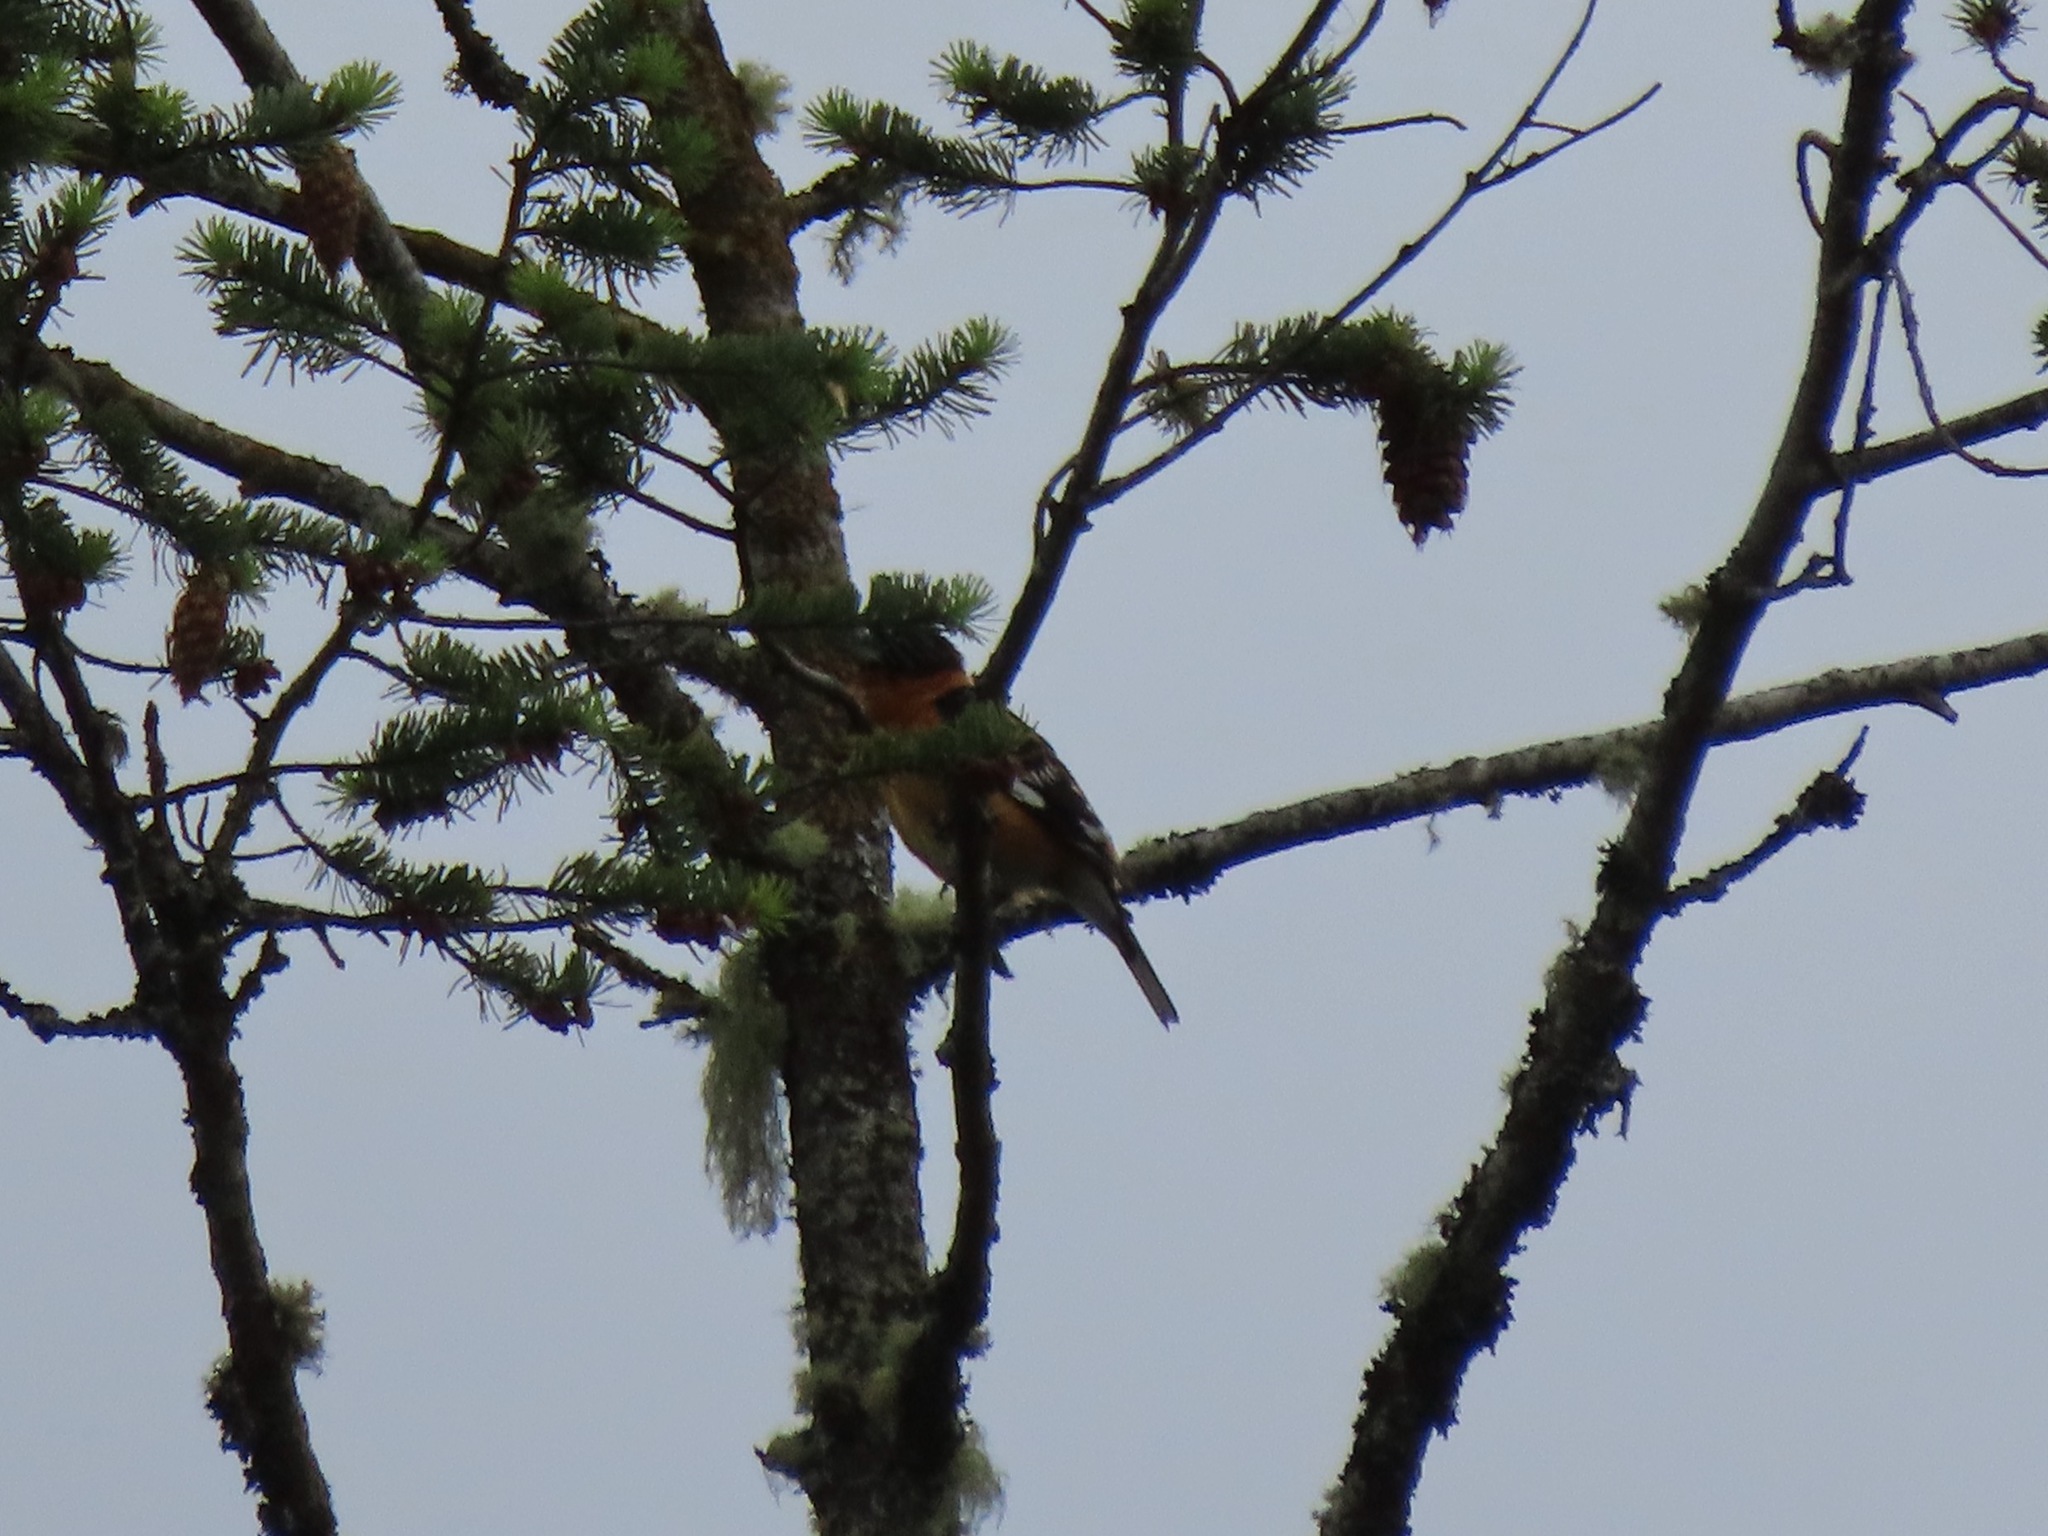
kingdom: Animalia
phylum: Chordata
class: Aves
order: Passeriformes
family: Cardinalidae
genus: Pheucticus
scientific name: Pheucticus melanocephalus
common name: Black-headed grosbeak
